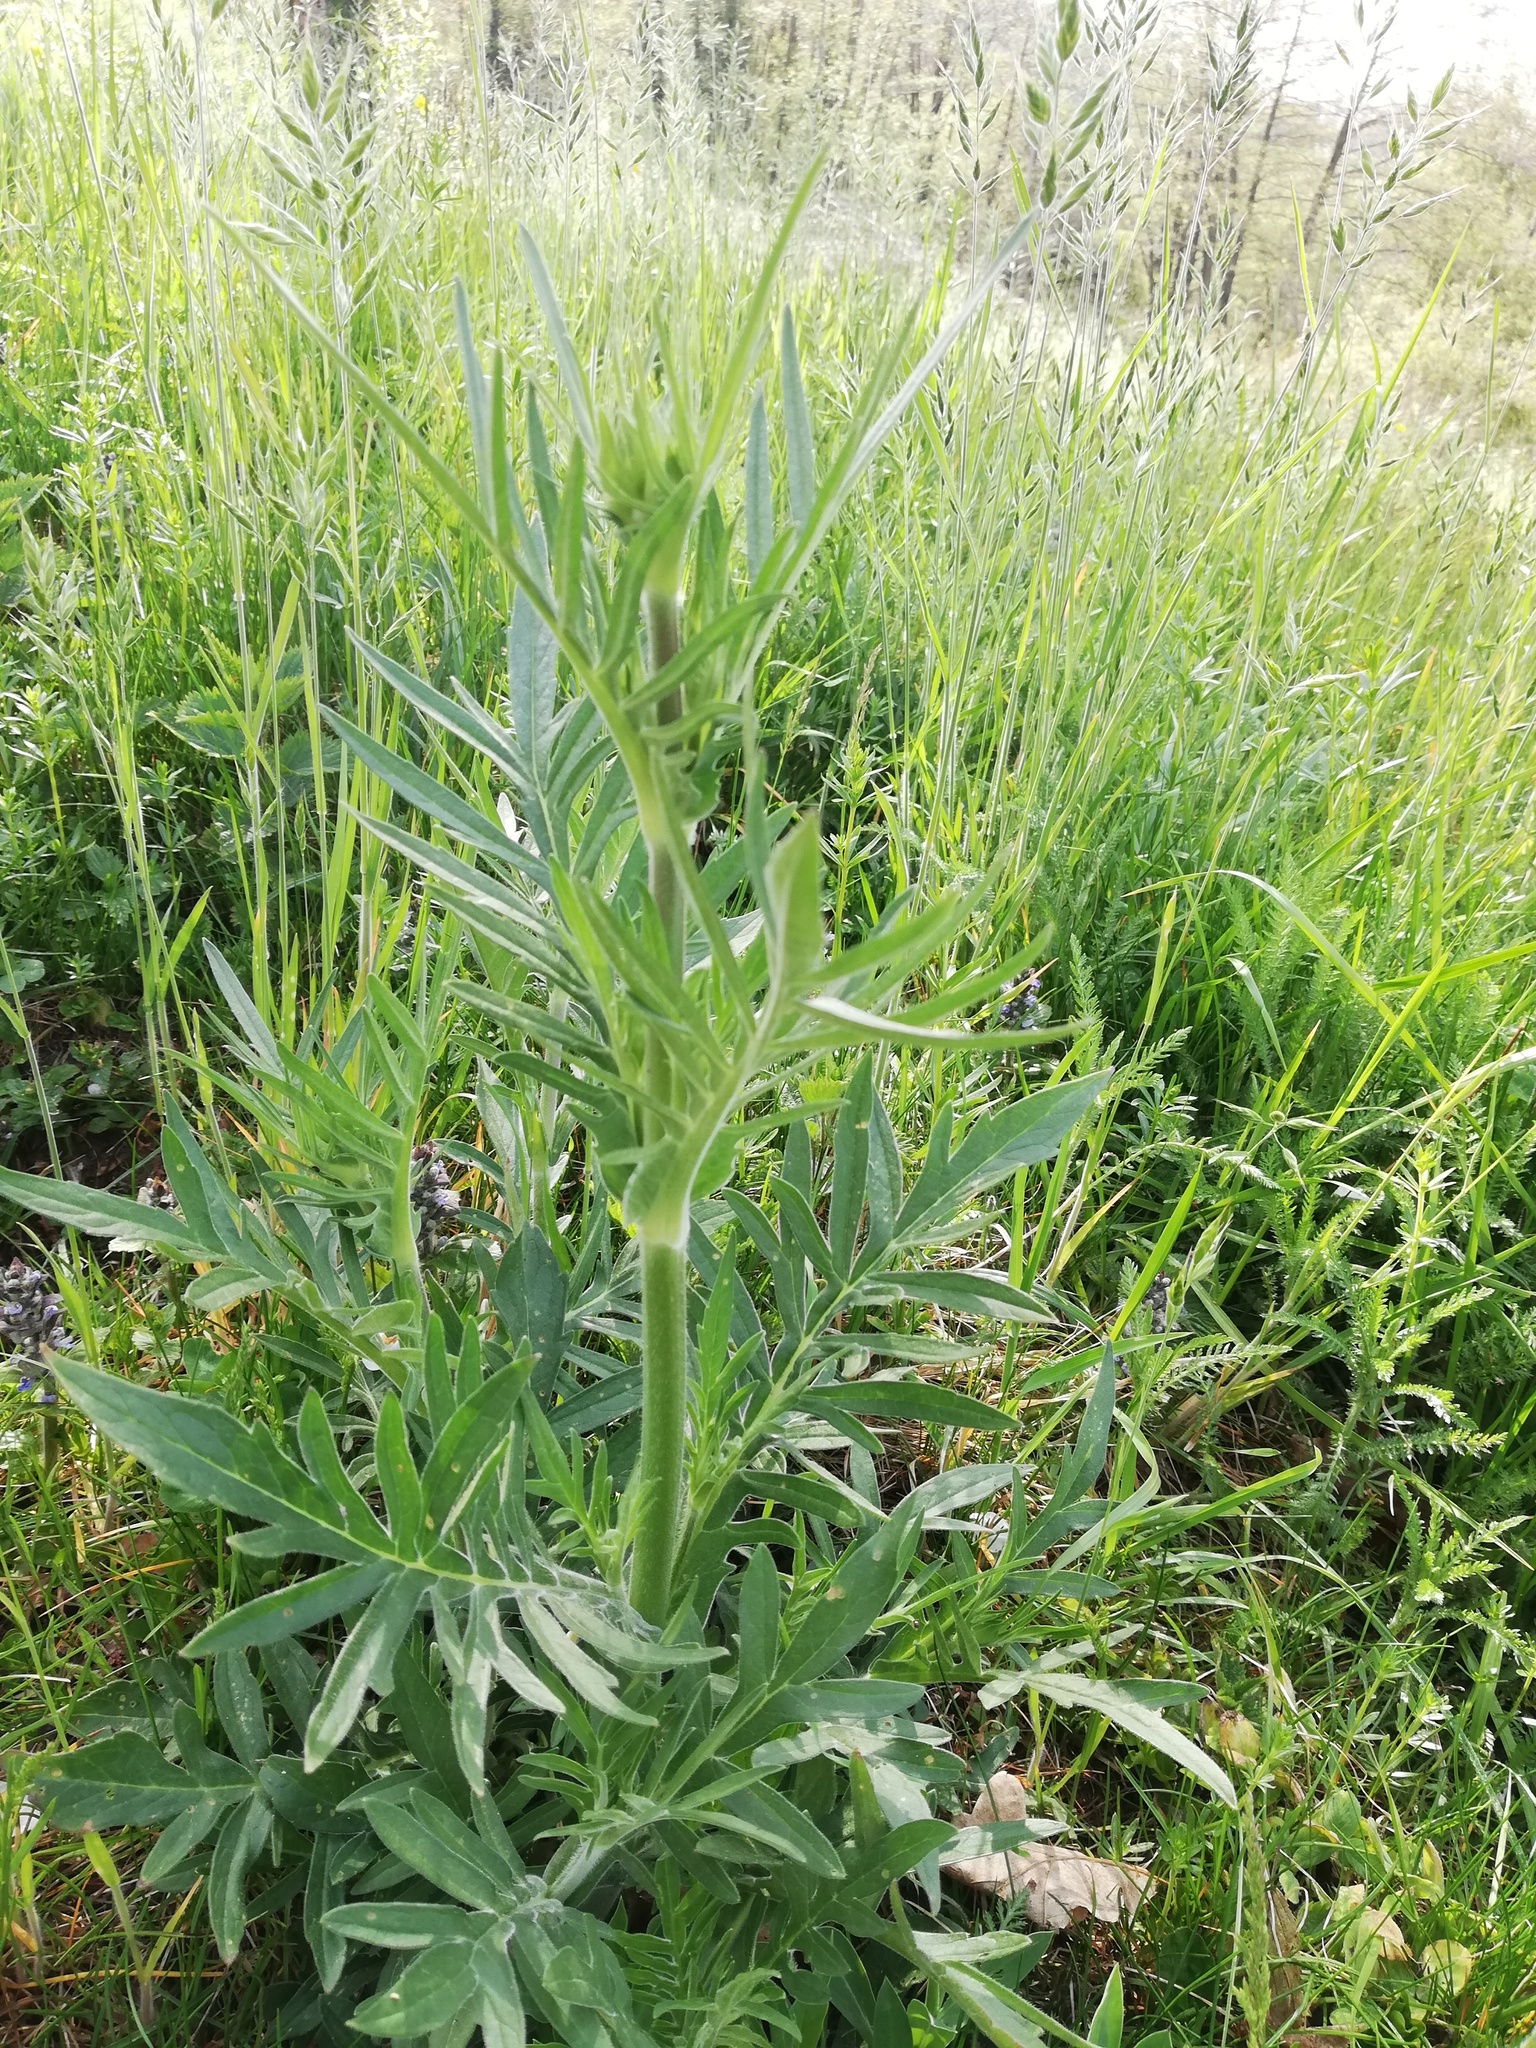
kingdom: Plantae
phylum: Tracheophyta
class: Magnoliopsida
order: Dipsacales
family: Caprifoliaceae
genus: Knautia
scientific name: Knautia arvensis
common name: Field scabiosa
